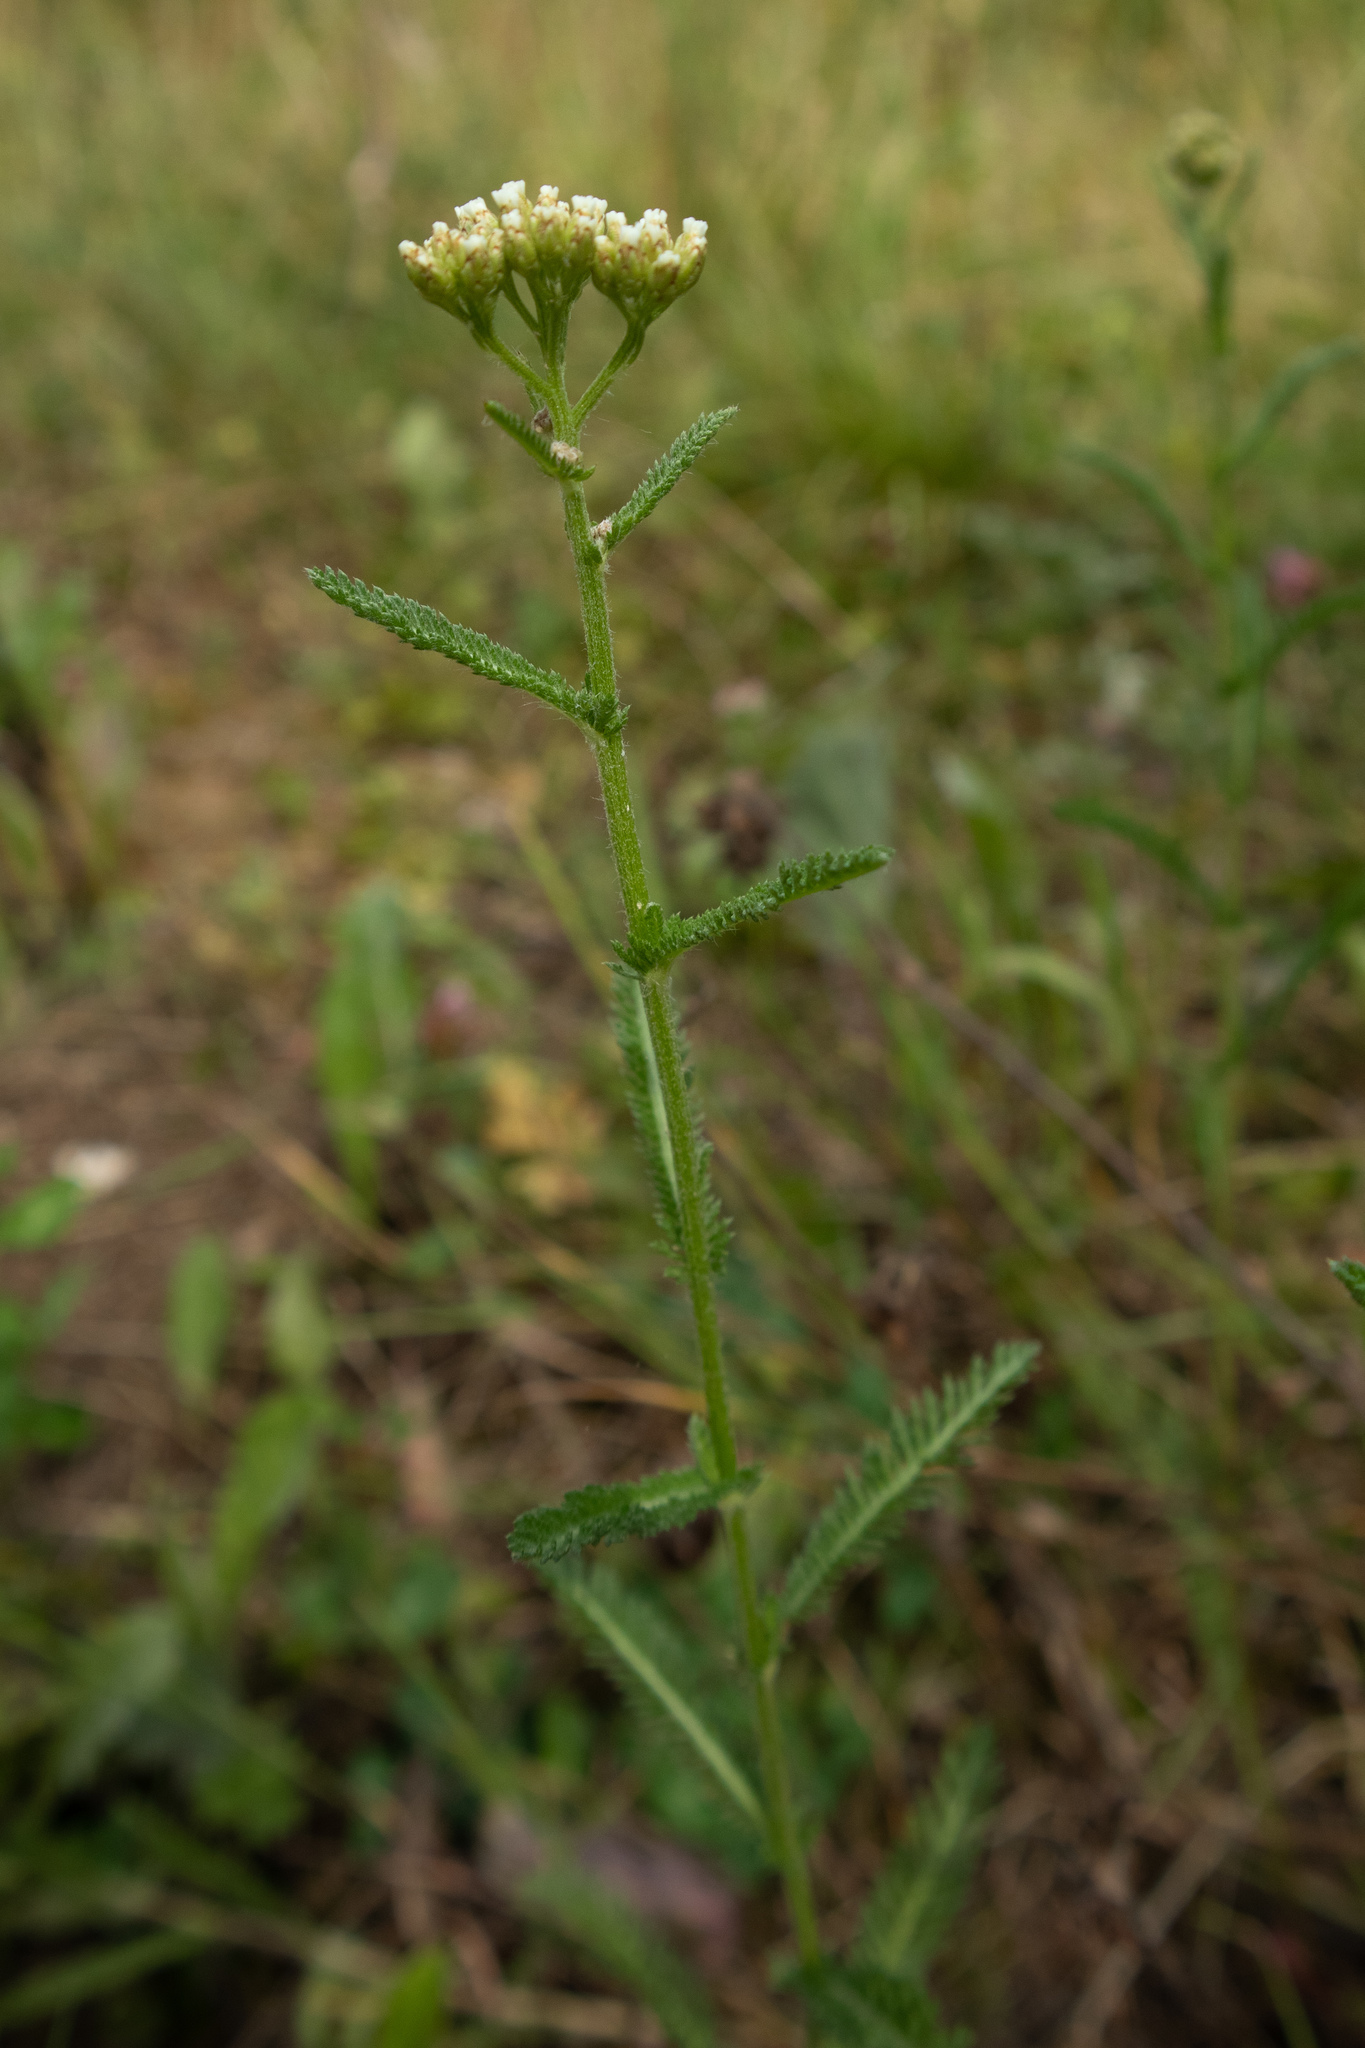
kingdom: Plantae
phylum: Tracheophyta
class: Magnoliopsida
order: Asterales
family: Asteraceae
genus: Achillea
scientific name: Achillea millefolium
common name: Yarrow
